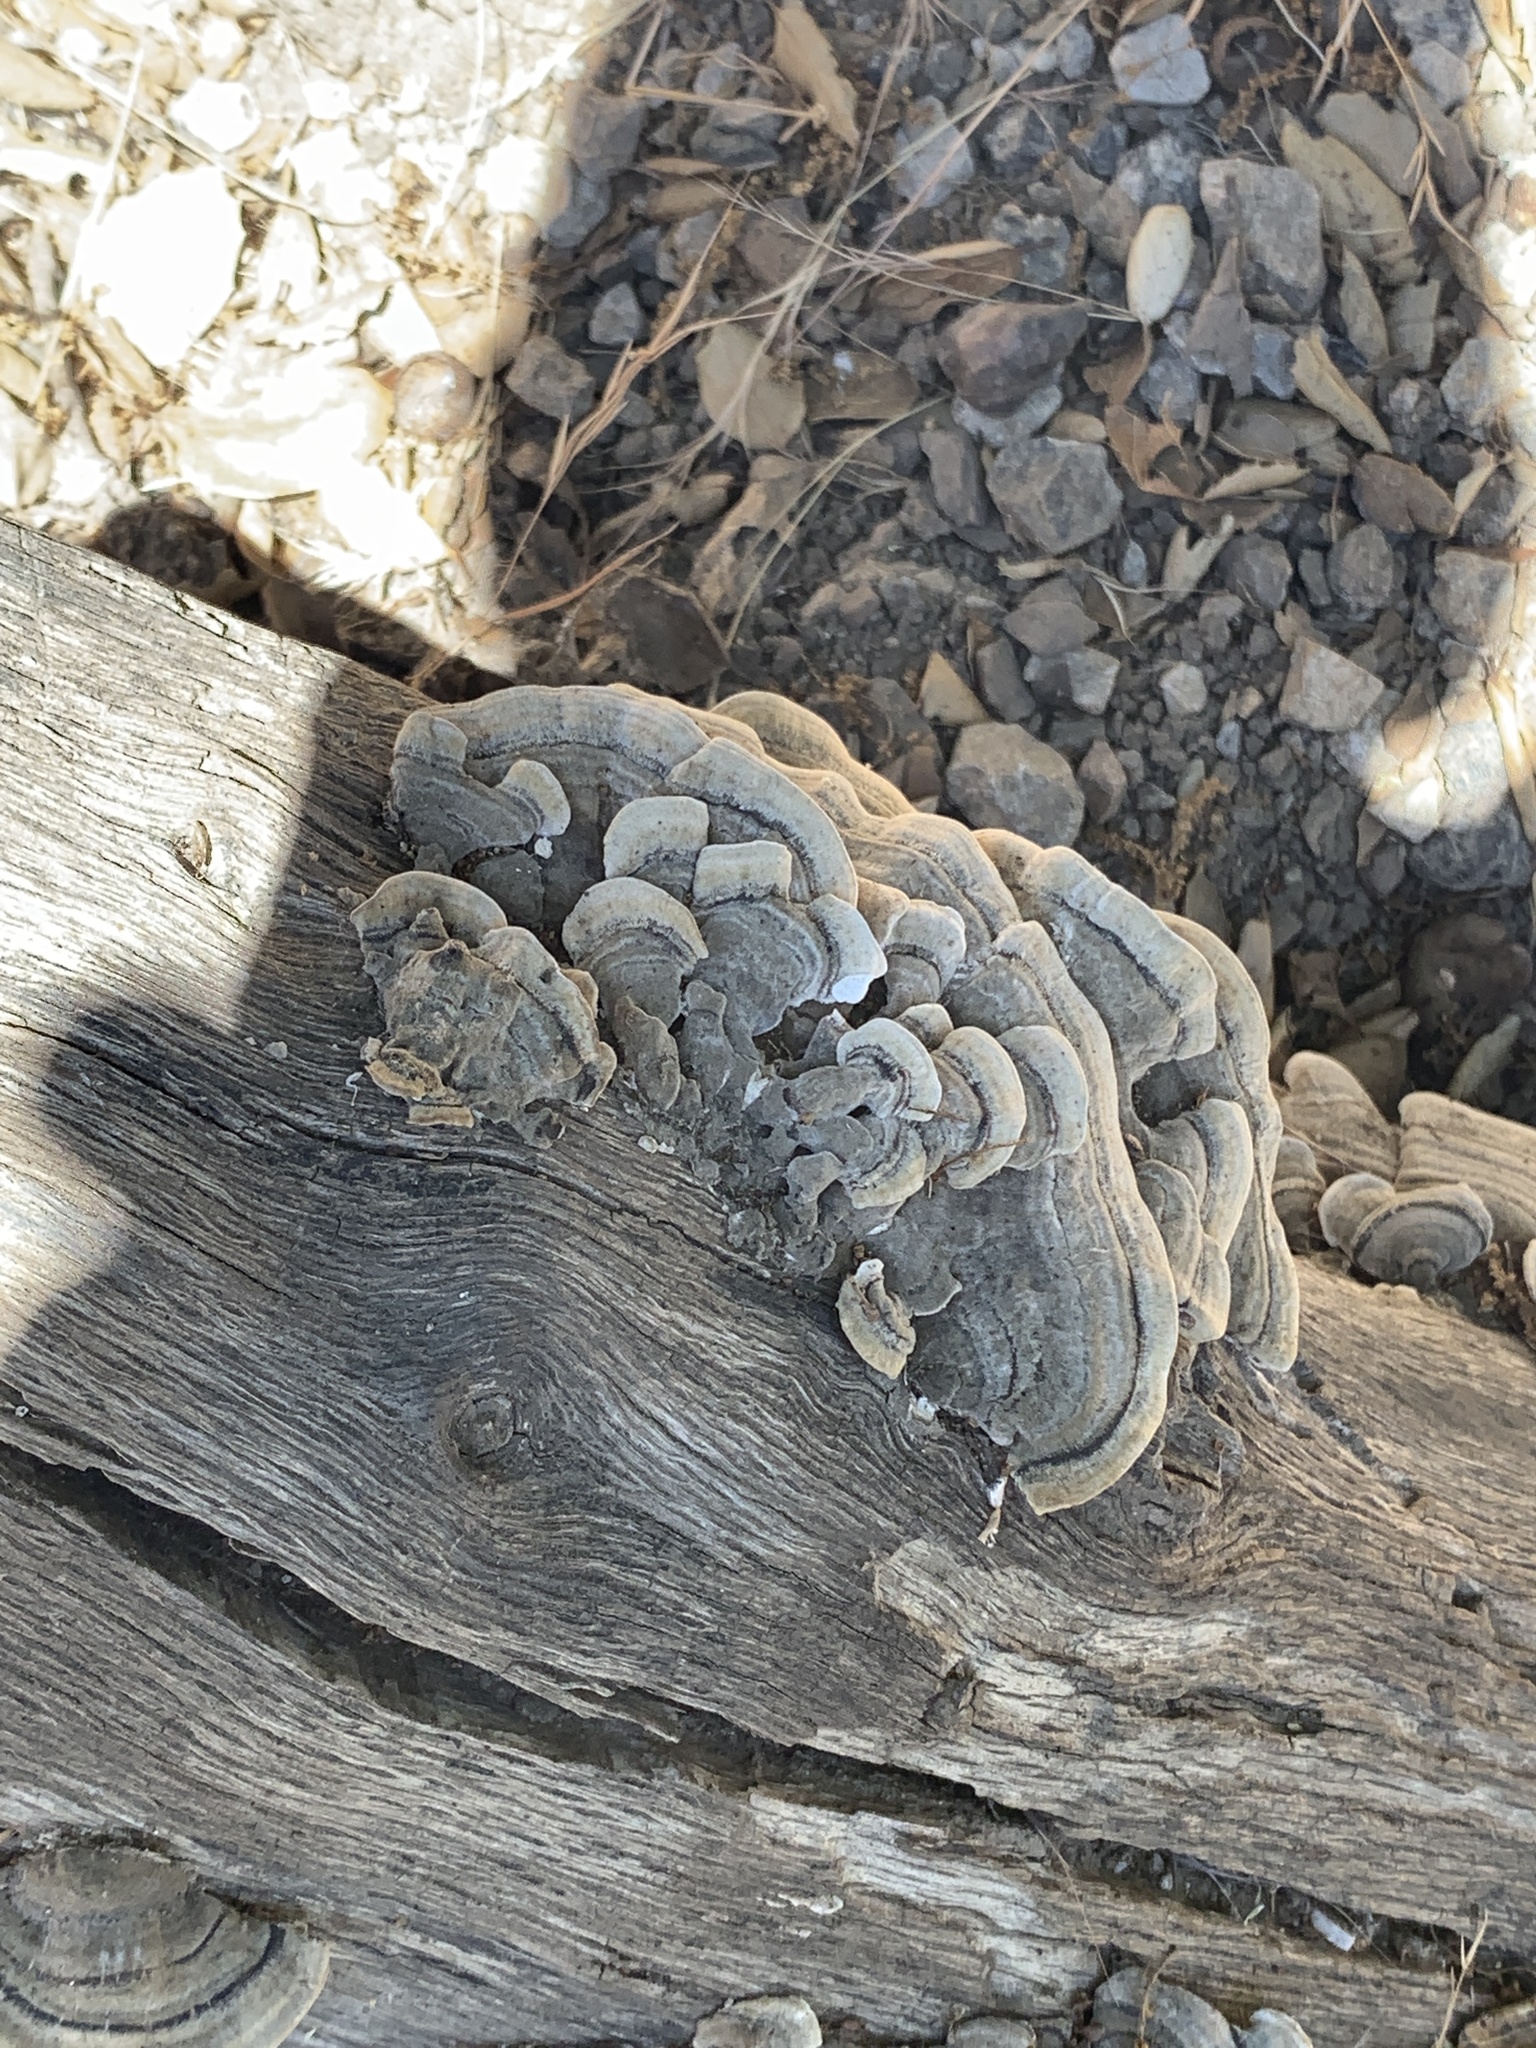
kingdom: Fungi
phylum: Basidiomycota
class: Agaricomycetes
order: Polyporales
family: Polyporaceae
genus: Trametes
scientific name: Trametes versicolor
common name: Turkeytail
